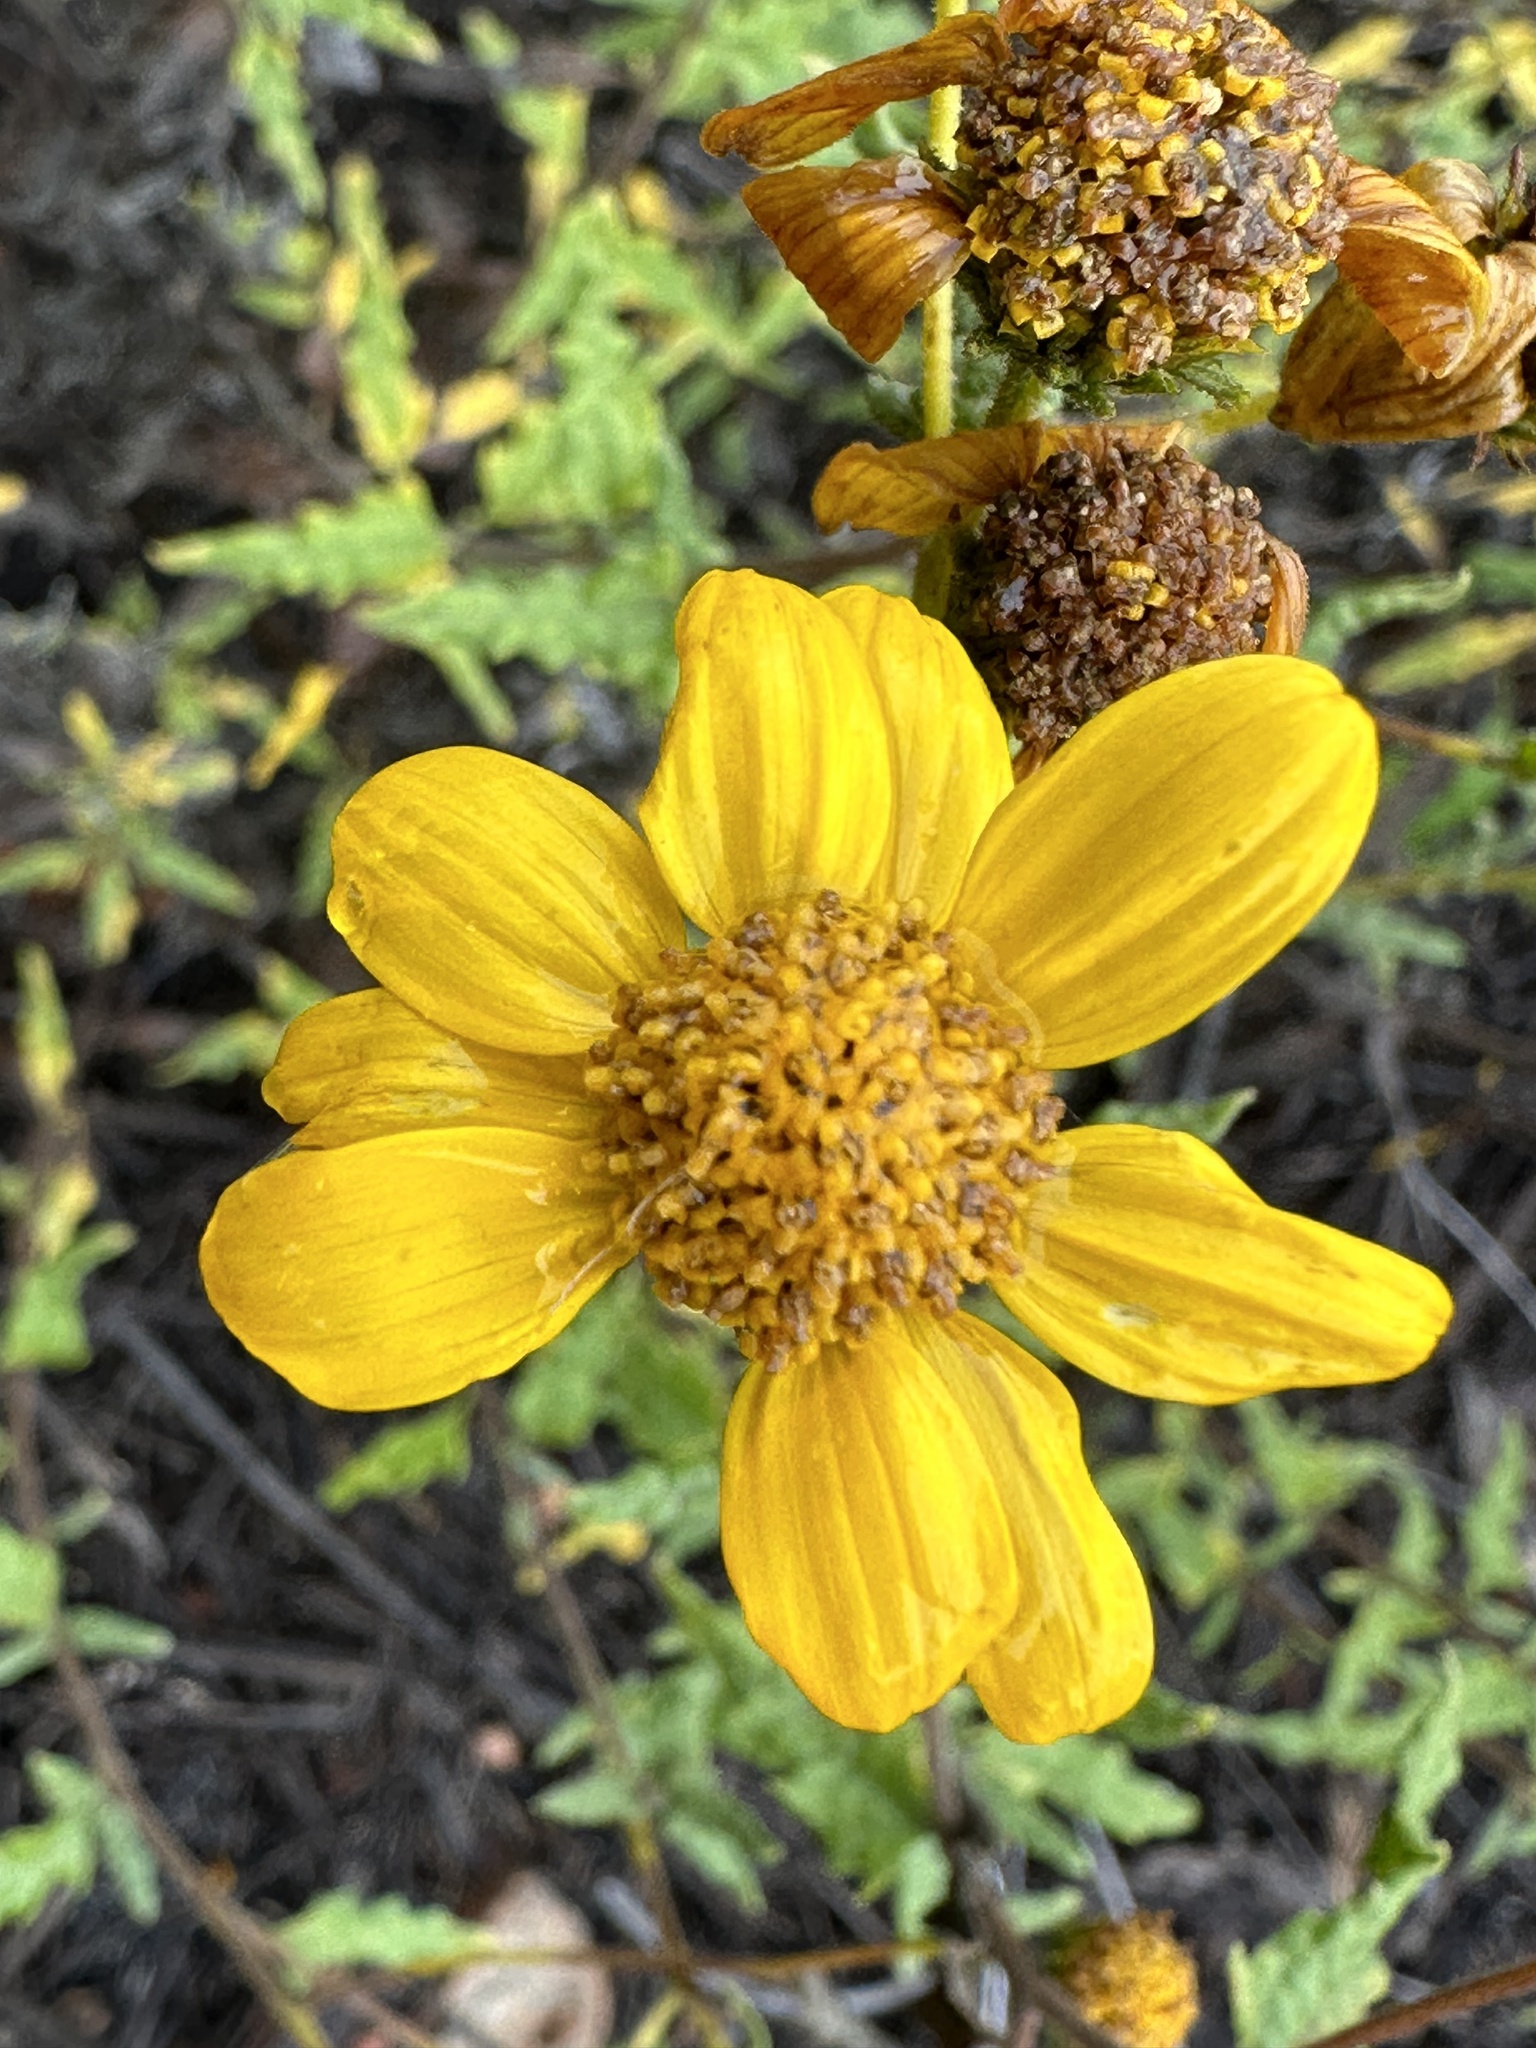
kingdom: Plantae
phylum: Tracheophyta
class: Magnoliopsida
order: Asterales
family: Asteraceae
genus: Bahiopsis
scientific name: Bahiopsis laciniata
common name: San diego county viguiera
